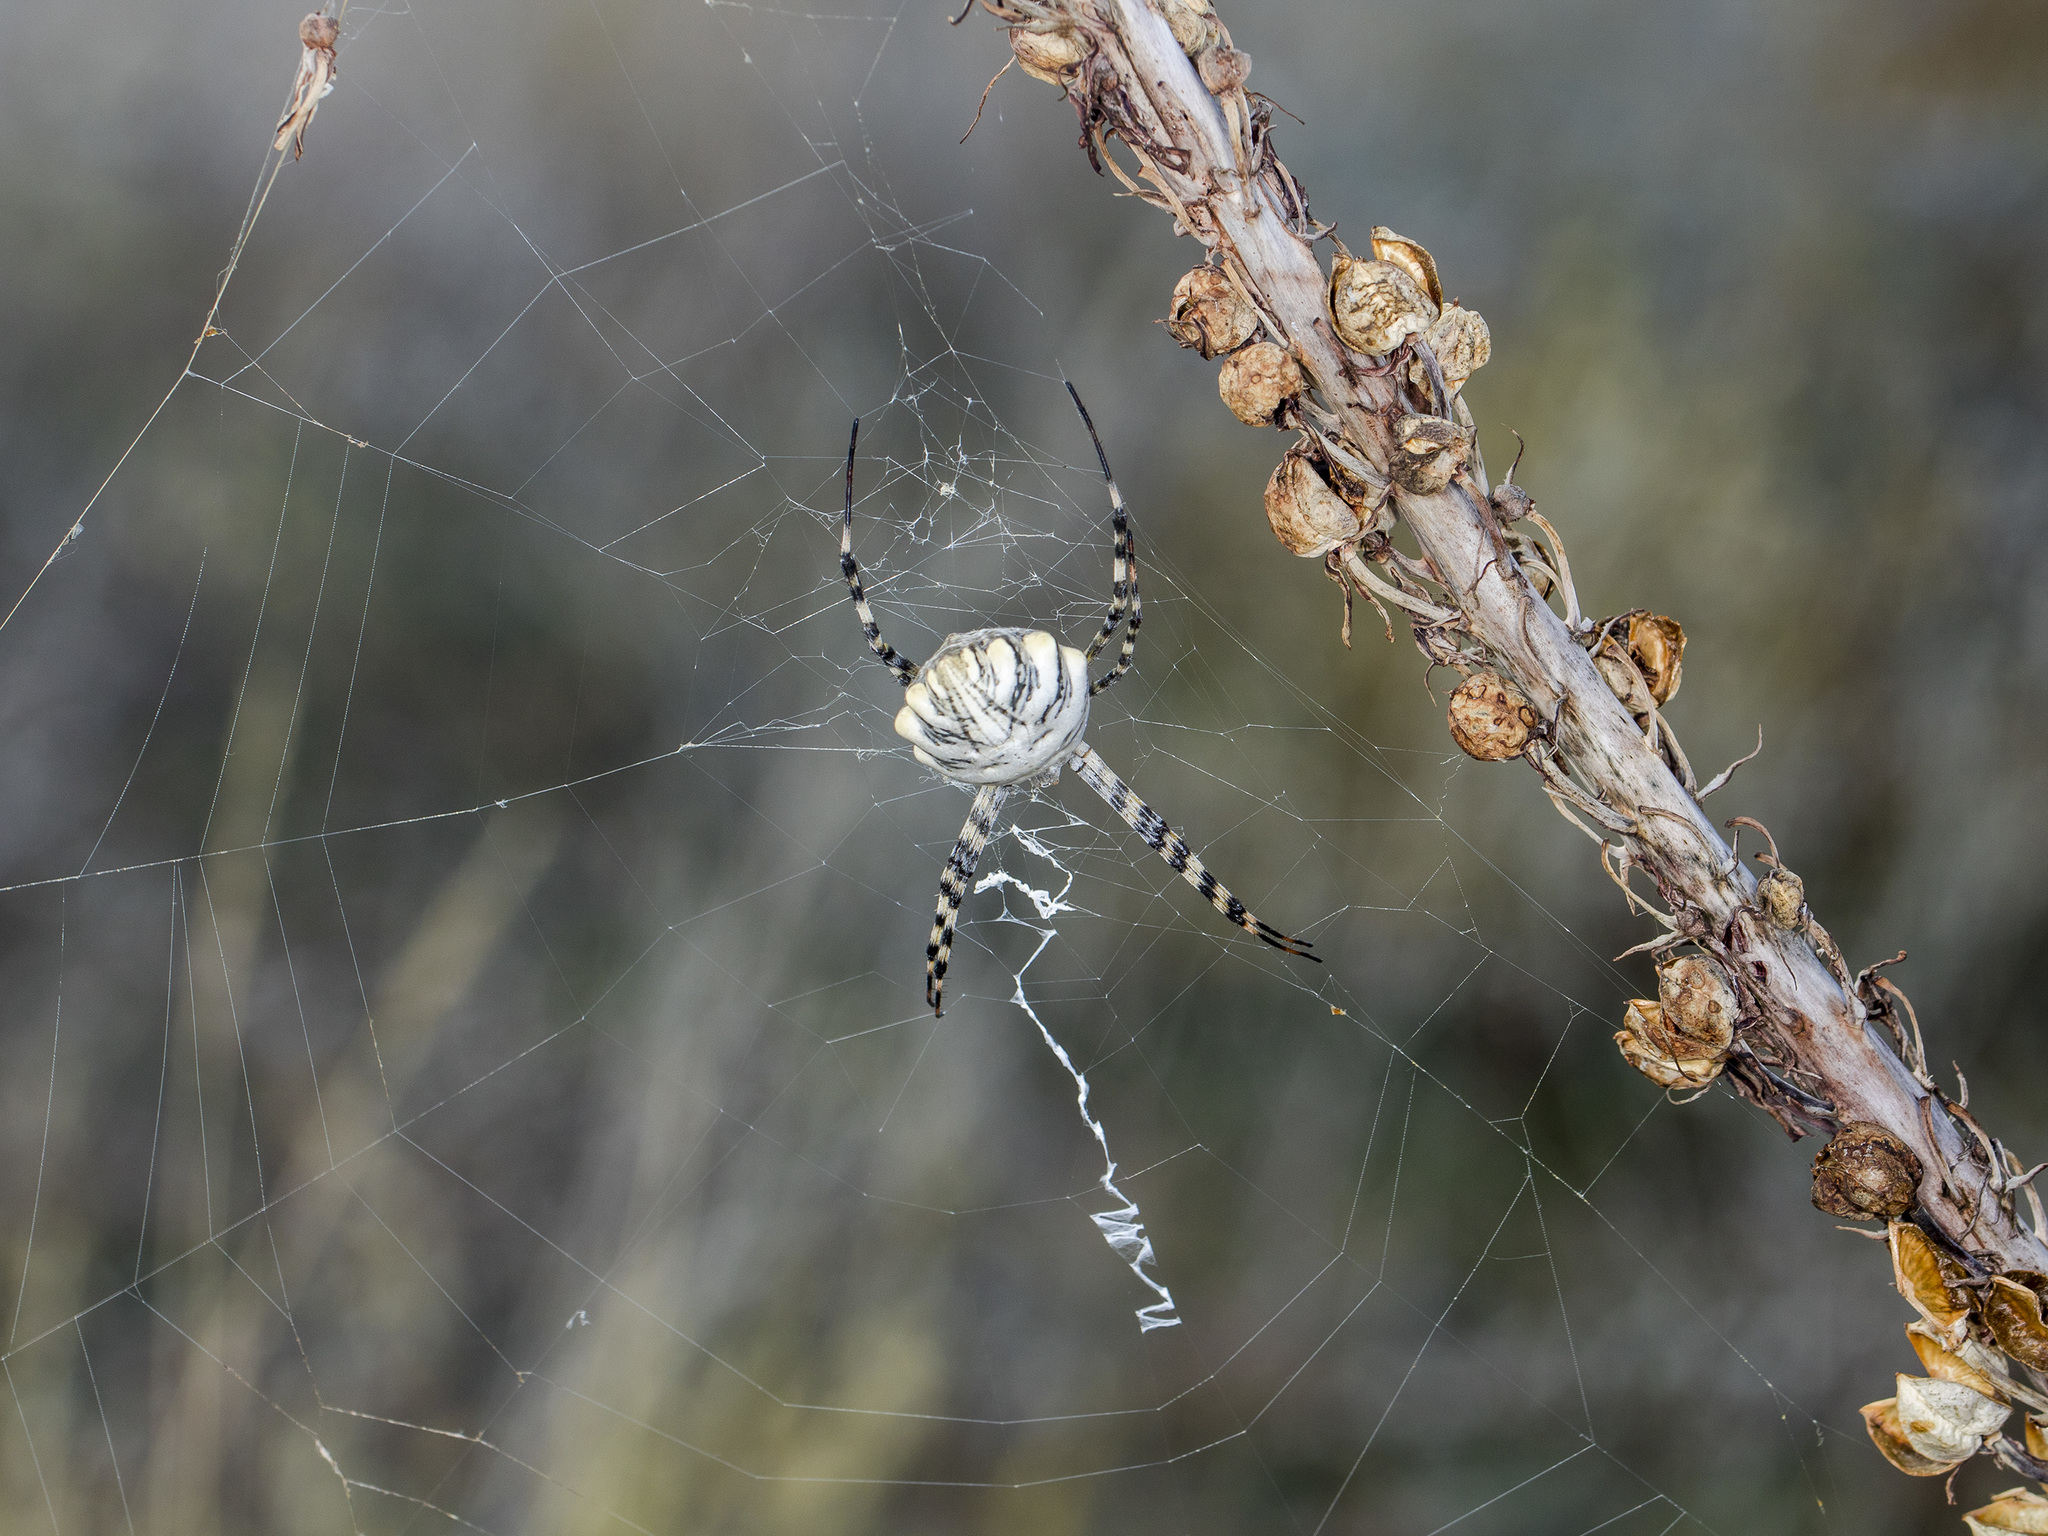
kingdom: Animalia
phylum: Arthropoda
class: Arachnida
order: Araneae
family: Araneidae
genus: Argiope
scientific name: Argiope lobata
